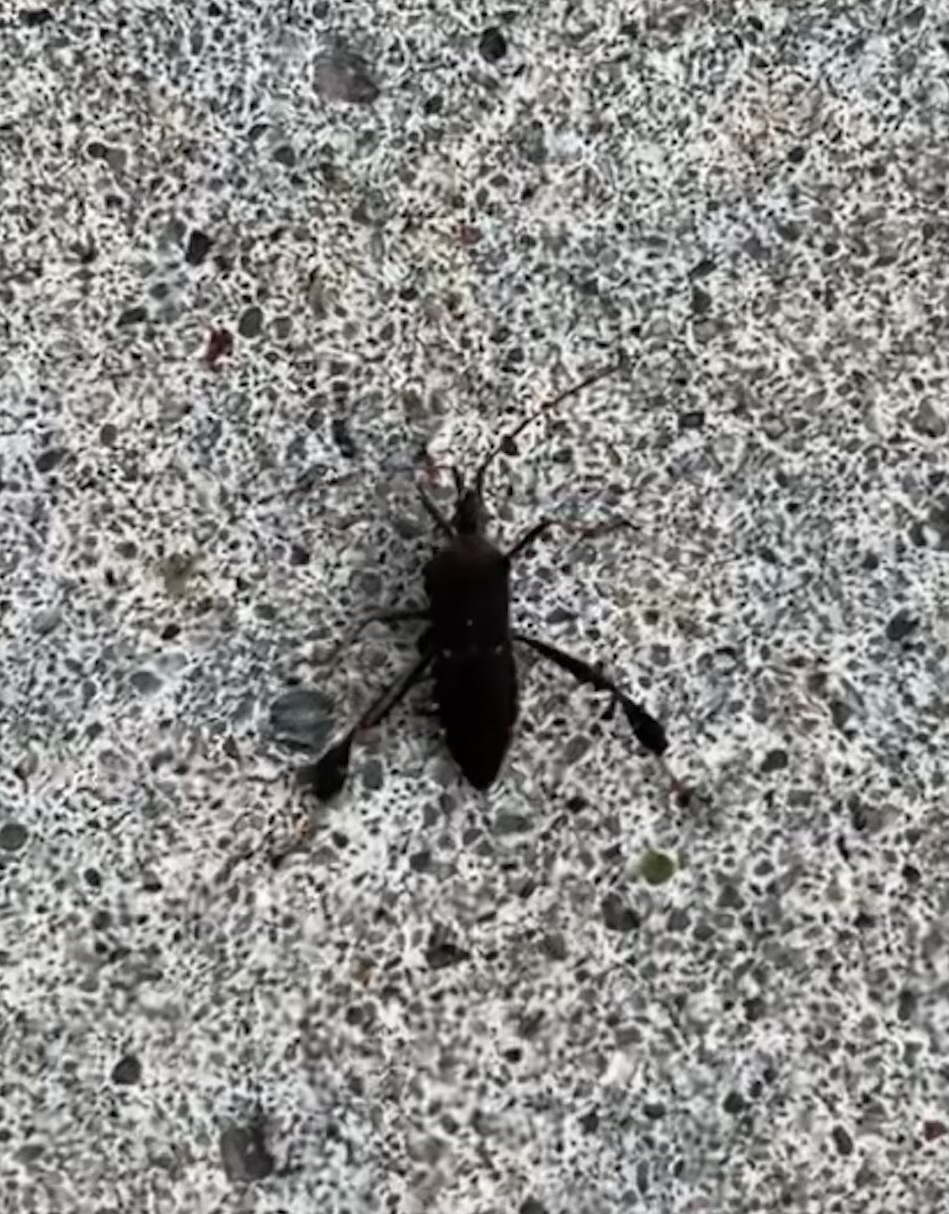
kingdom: Animalia
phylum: Arthropoda
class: Insecta
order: Hemiptera
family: Coreidae
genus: Leptoglossus
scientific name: Leptoglossus oppositus
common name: Northern leaf-footed bug
